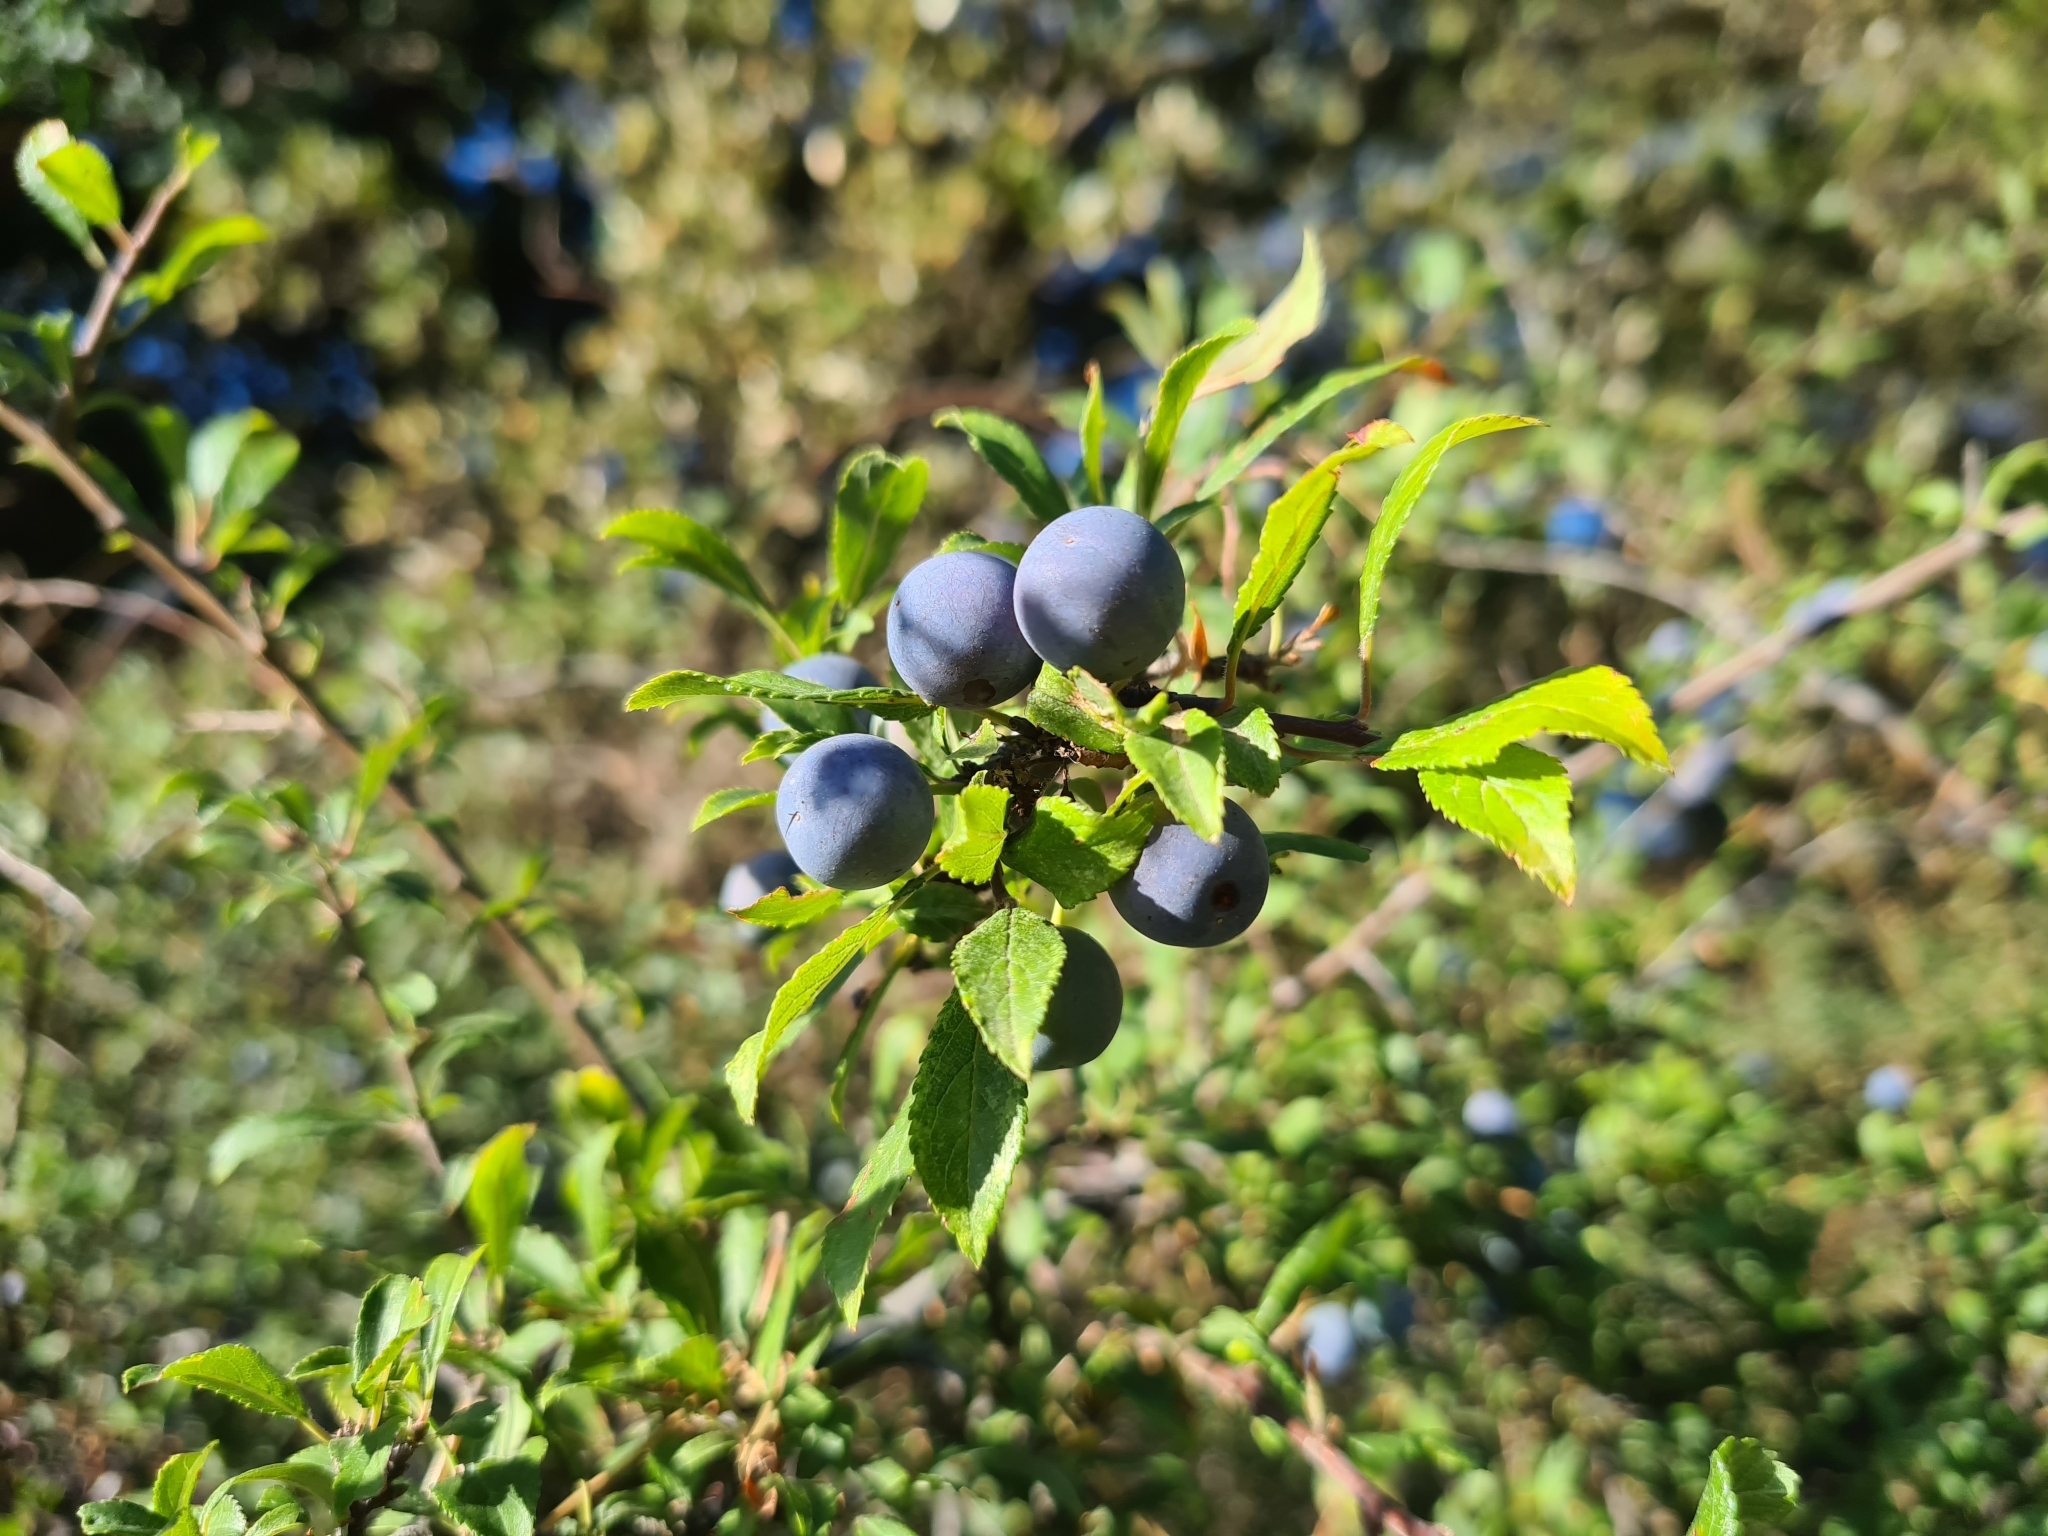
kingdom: Plantae
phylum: Tracheophyta
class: Magnoliopsida
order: Rosales
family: Rosaceae
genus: Prunus
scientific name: Prunus spinosa
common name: Blackthorn
